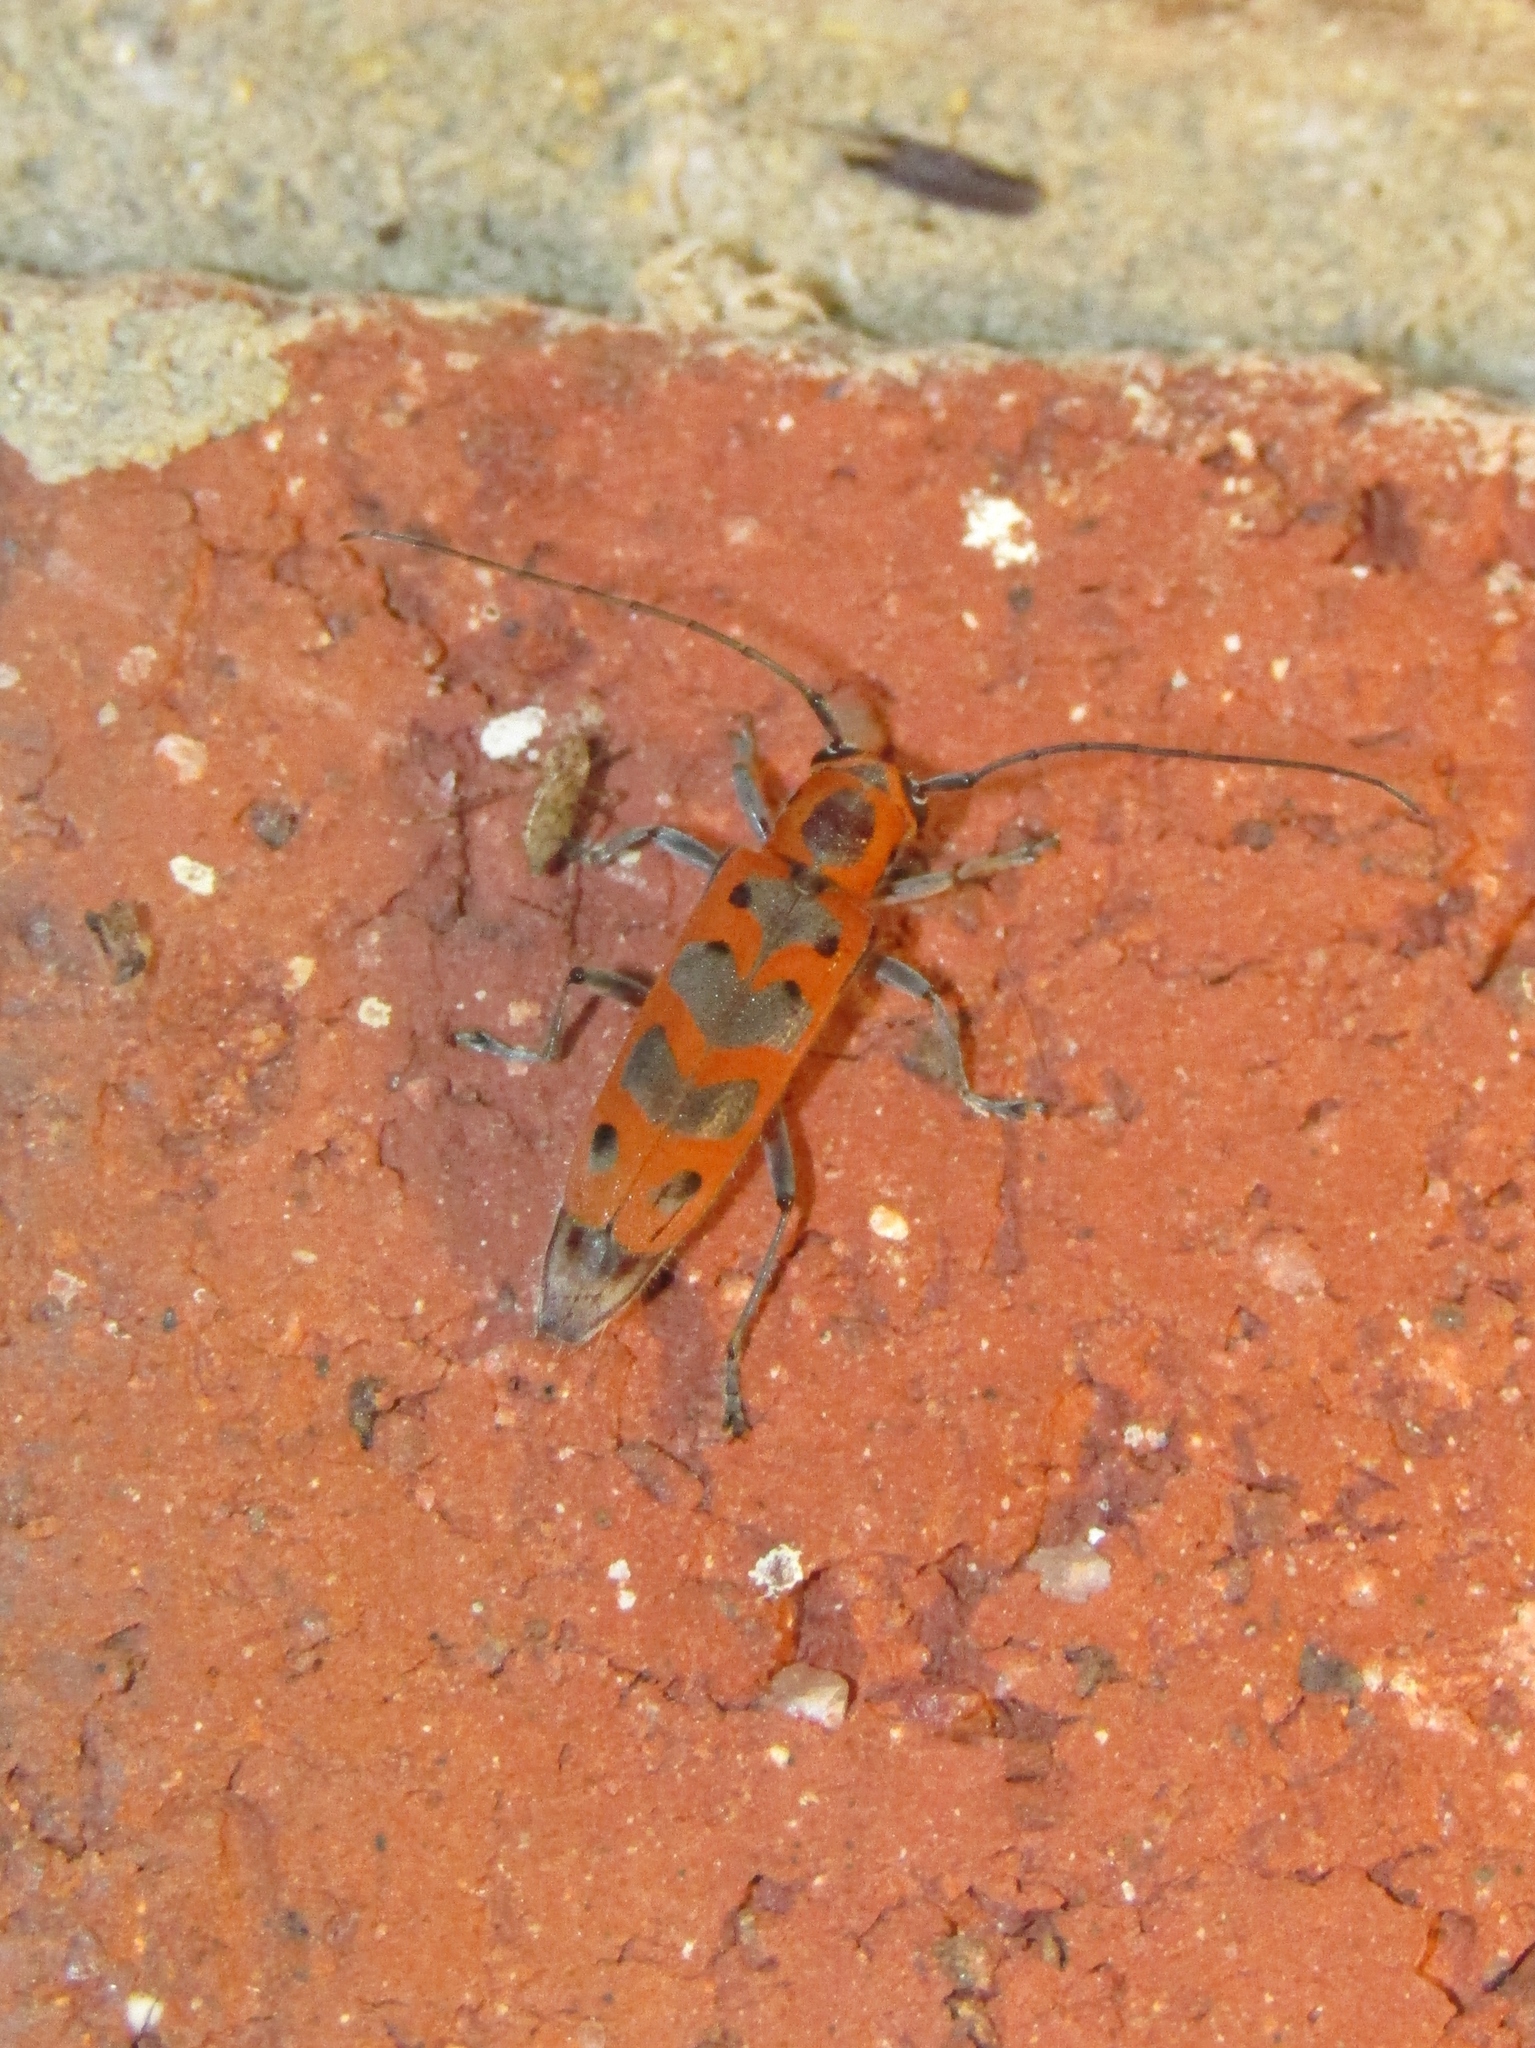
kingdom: Animalia
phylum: Arthropoda
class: Insecta
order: Coleoptera
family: Cerambycidae
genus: Saperda
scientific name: Saperda tridentata
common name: Elm borer
